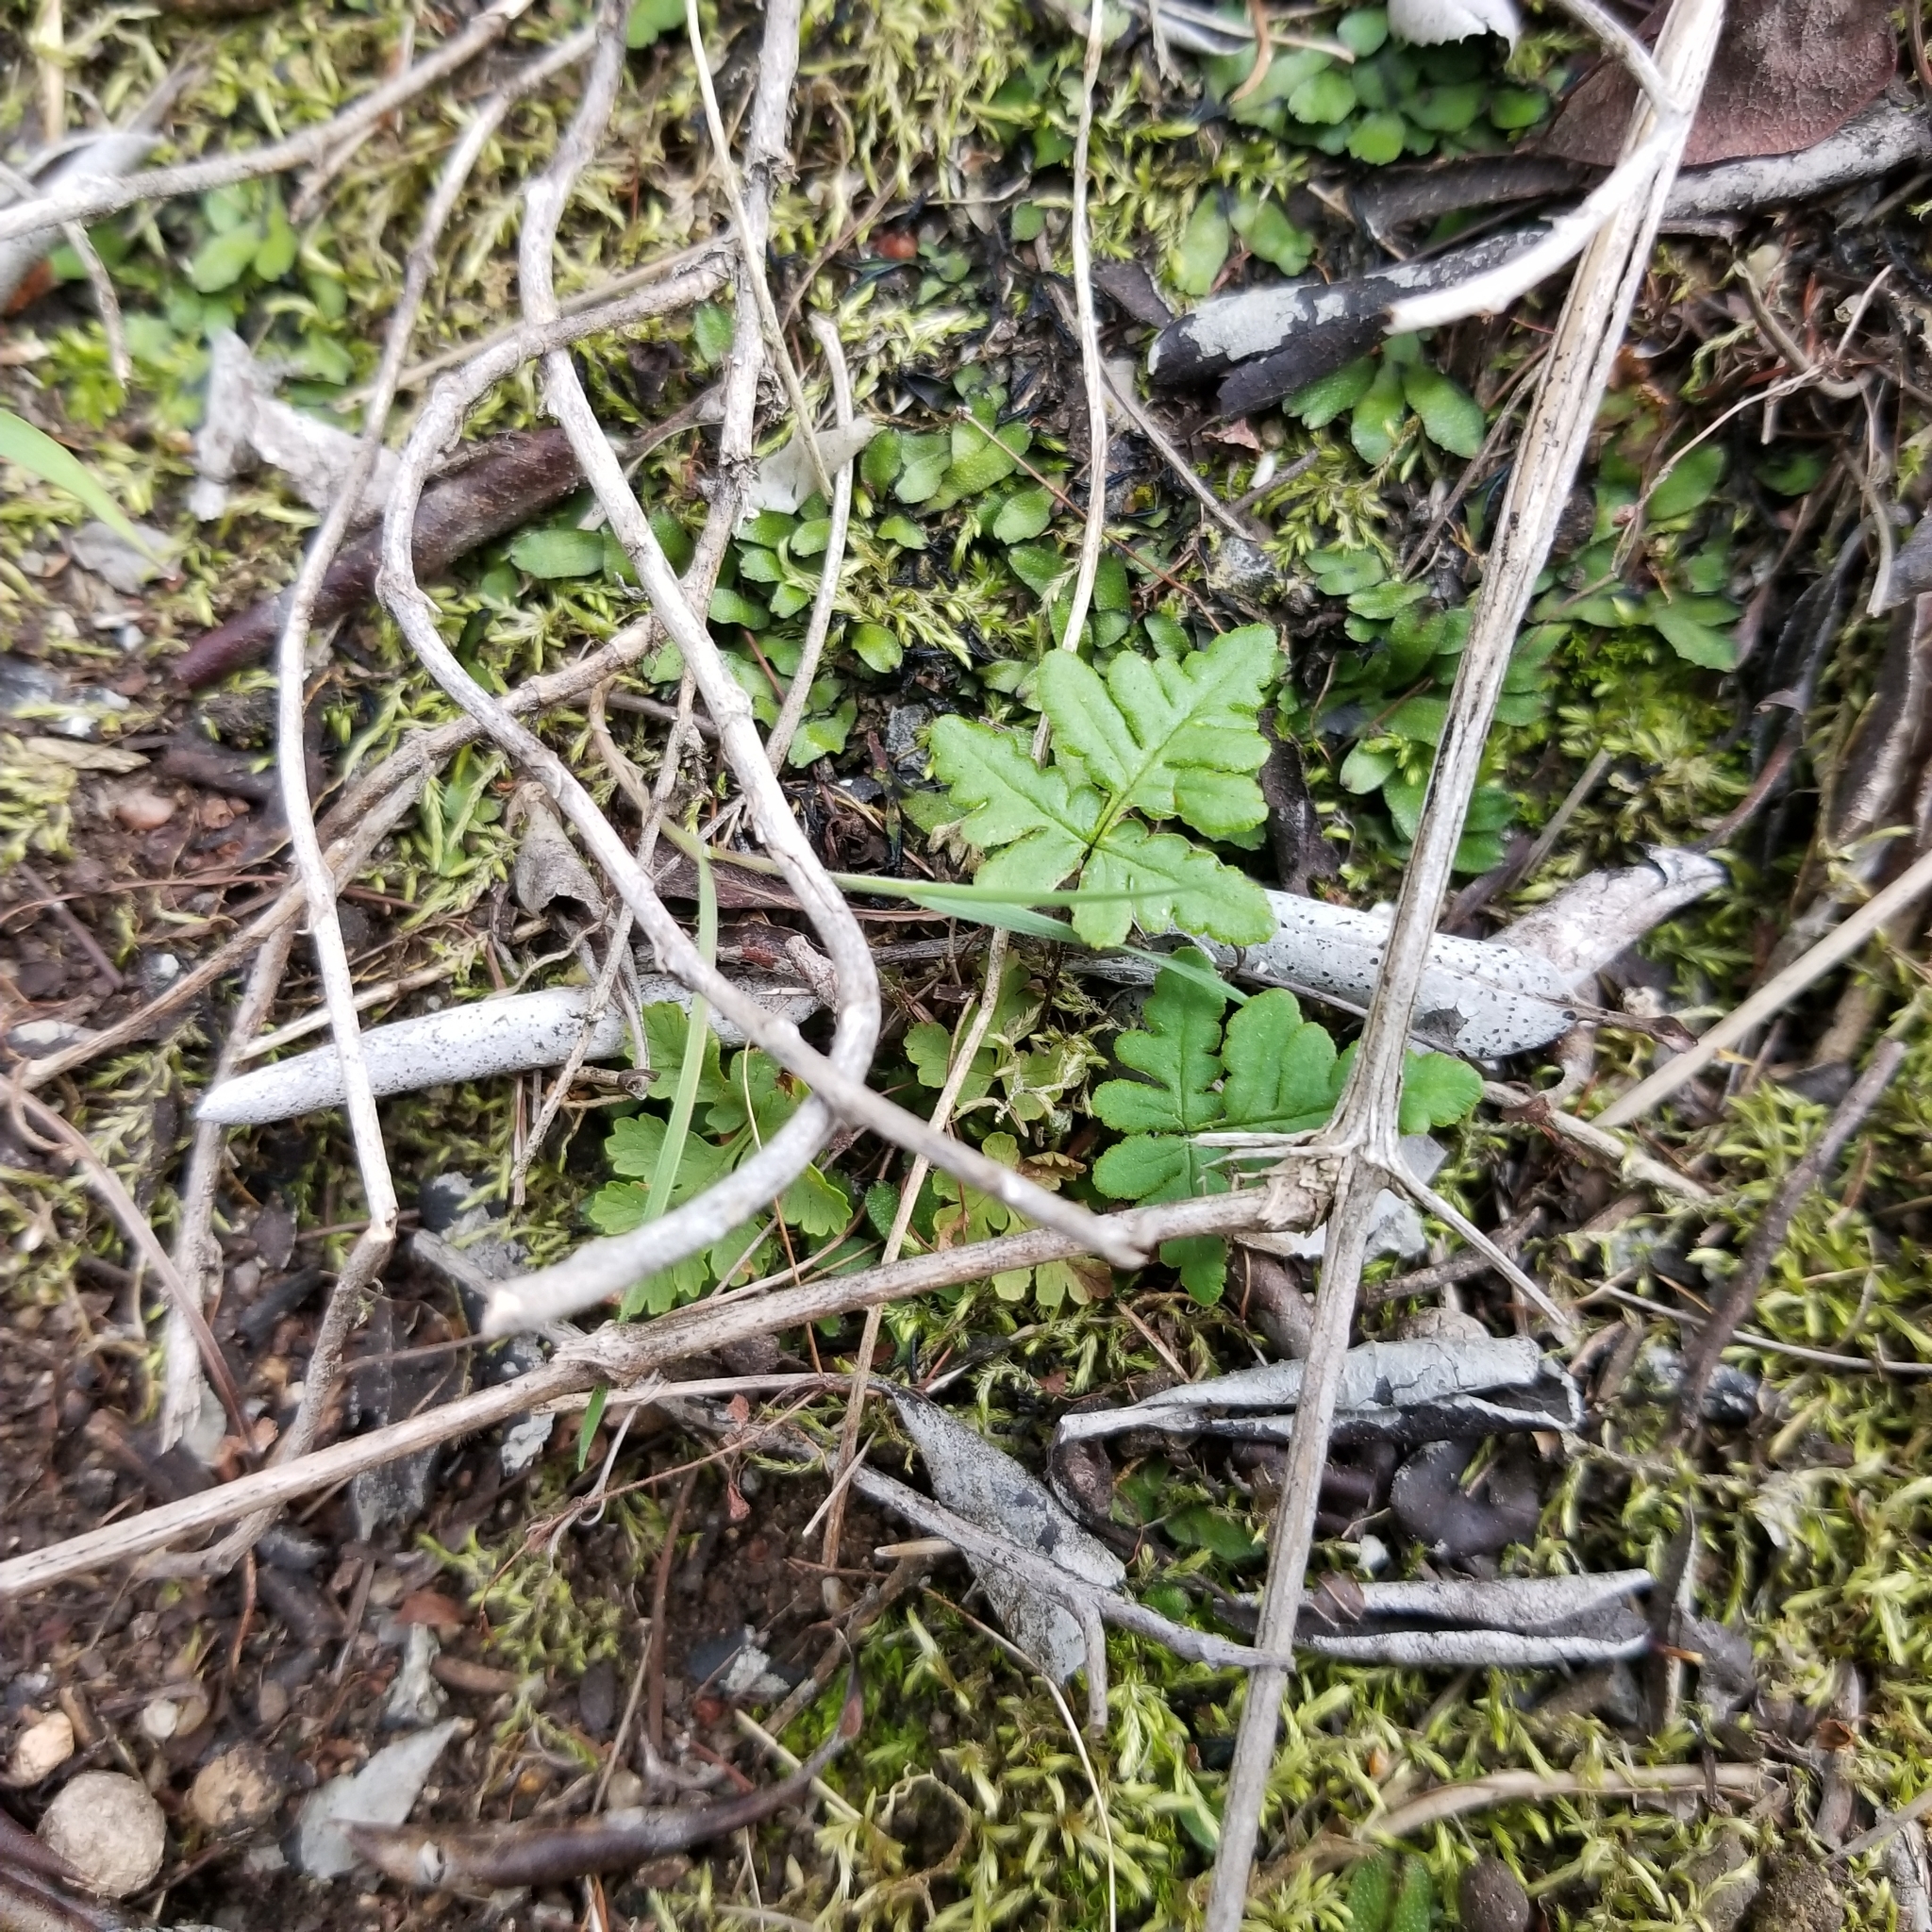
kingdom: Plantae
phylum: Tracheophyta
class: Polypodiopsida
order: Polypodiales
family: Pteridaceae
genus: Pentagramma
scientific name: Pentagramma viscosa
